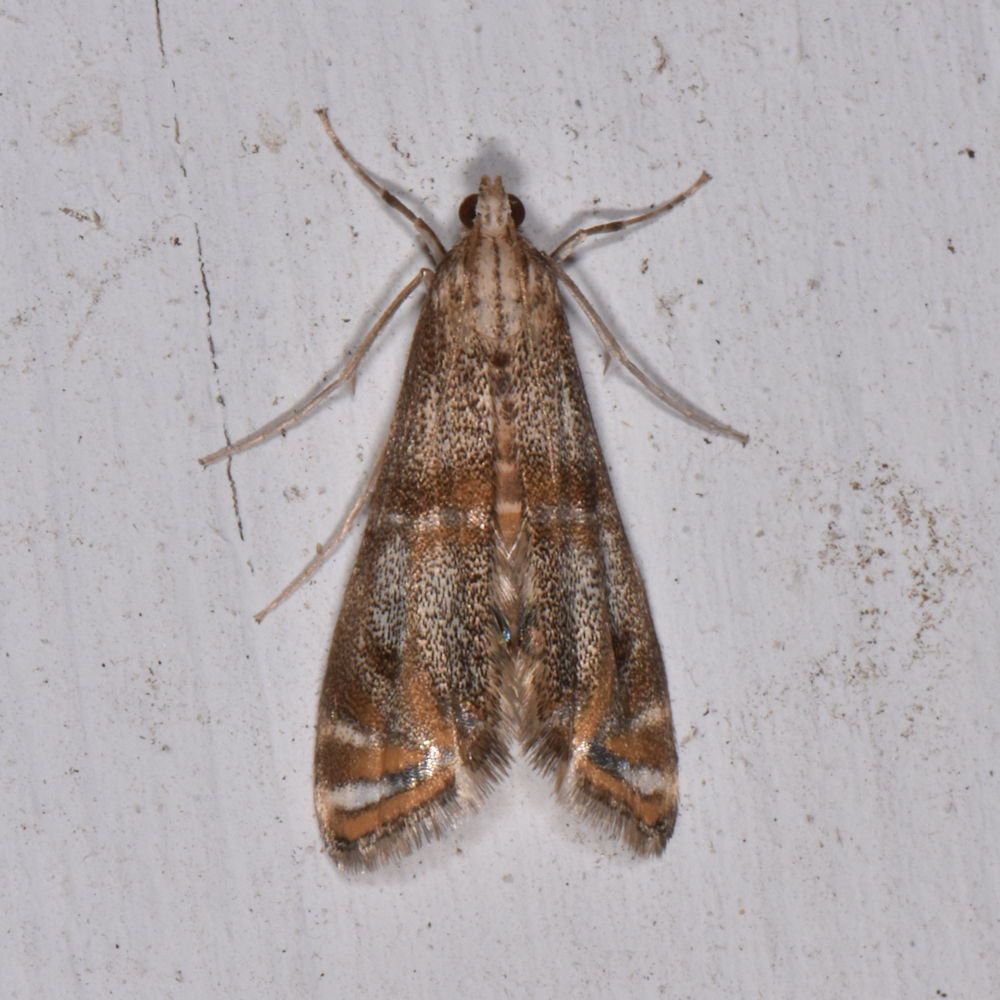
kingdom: Animalia
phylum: Arthropoda
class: Insecta
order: Lepidoptera
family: Crambidae
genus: Petrophila
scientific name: Petrophila bifascialis
